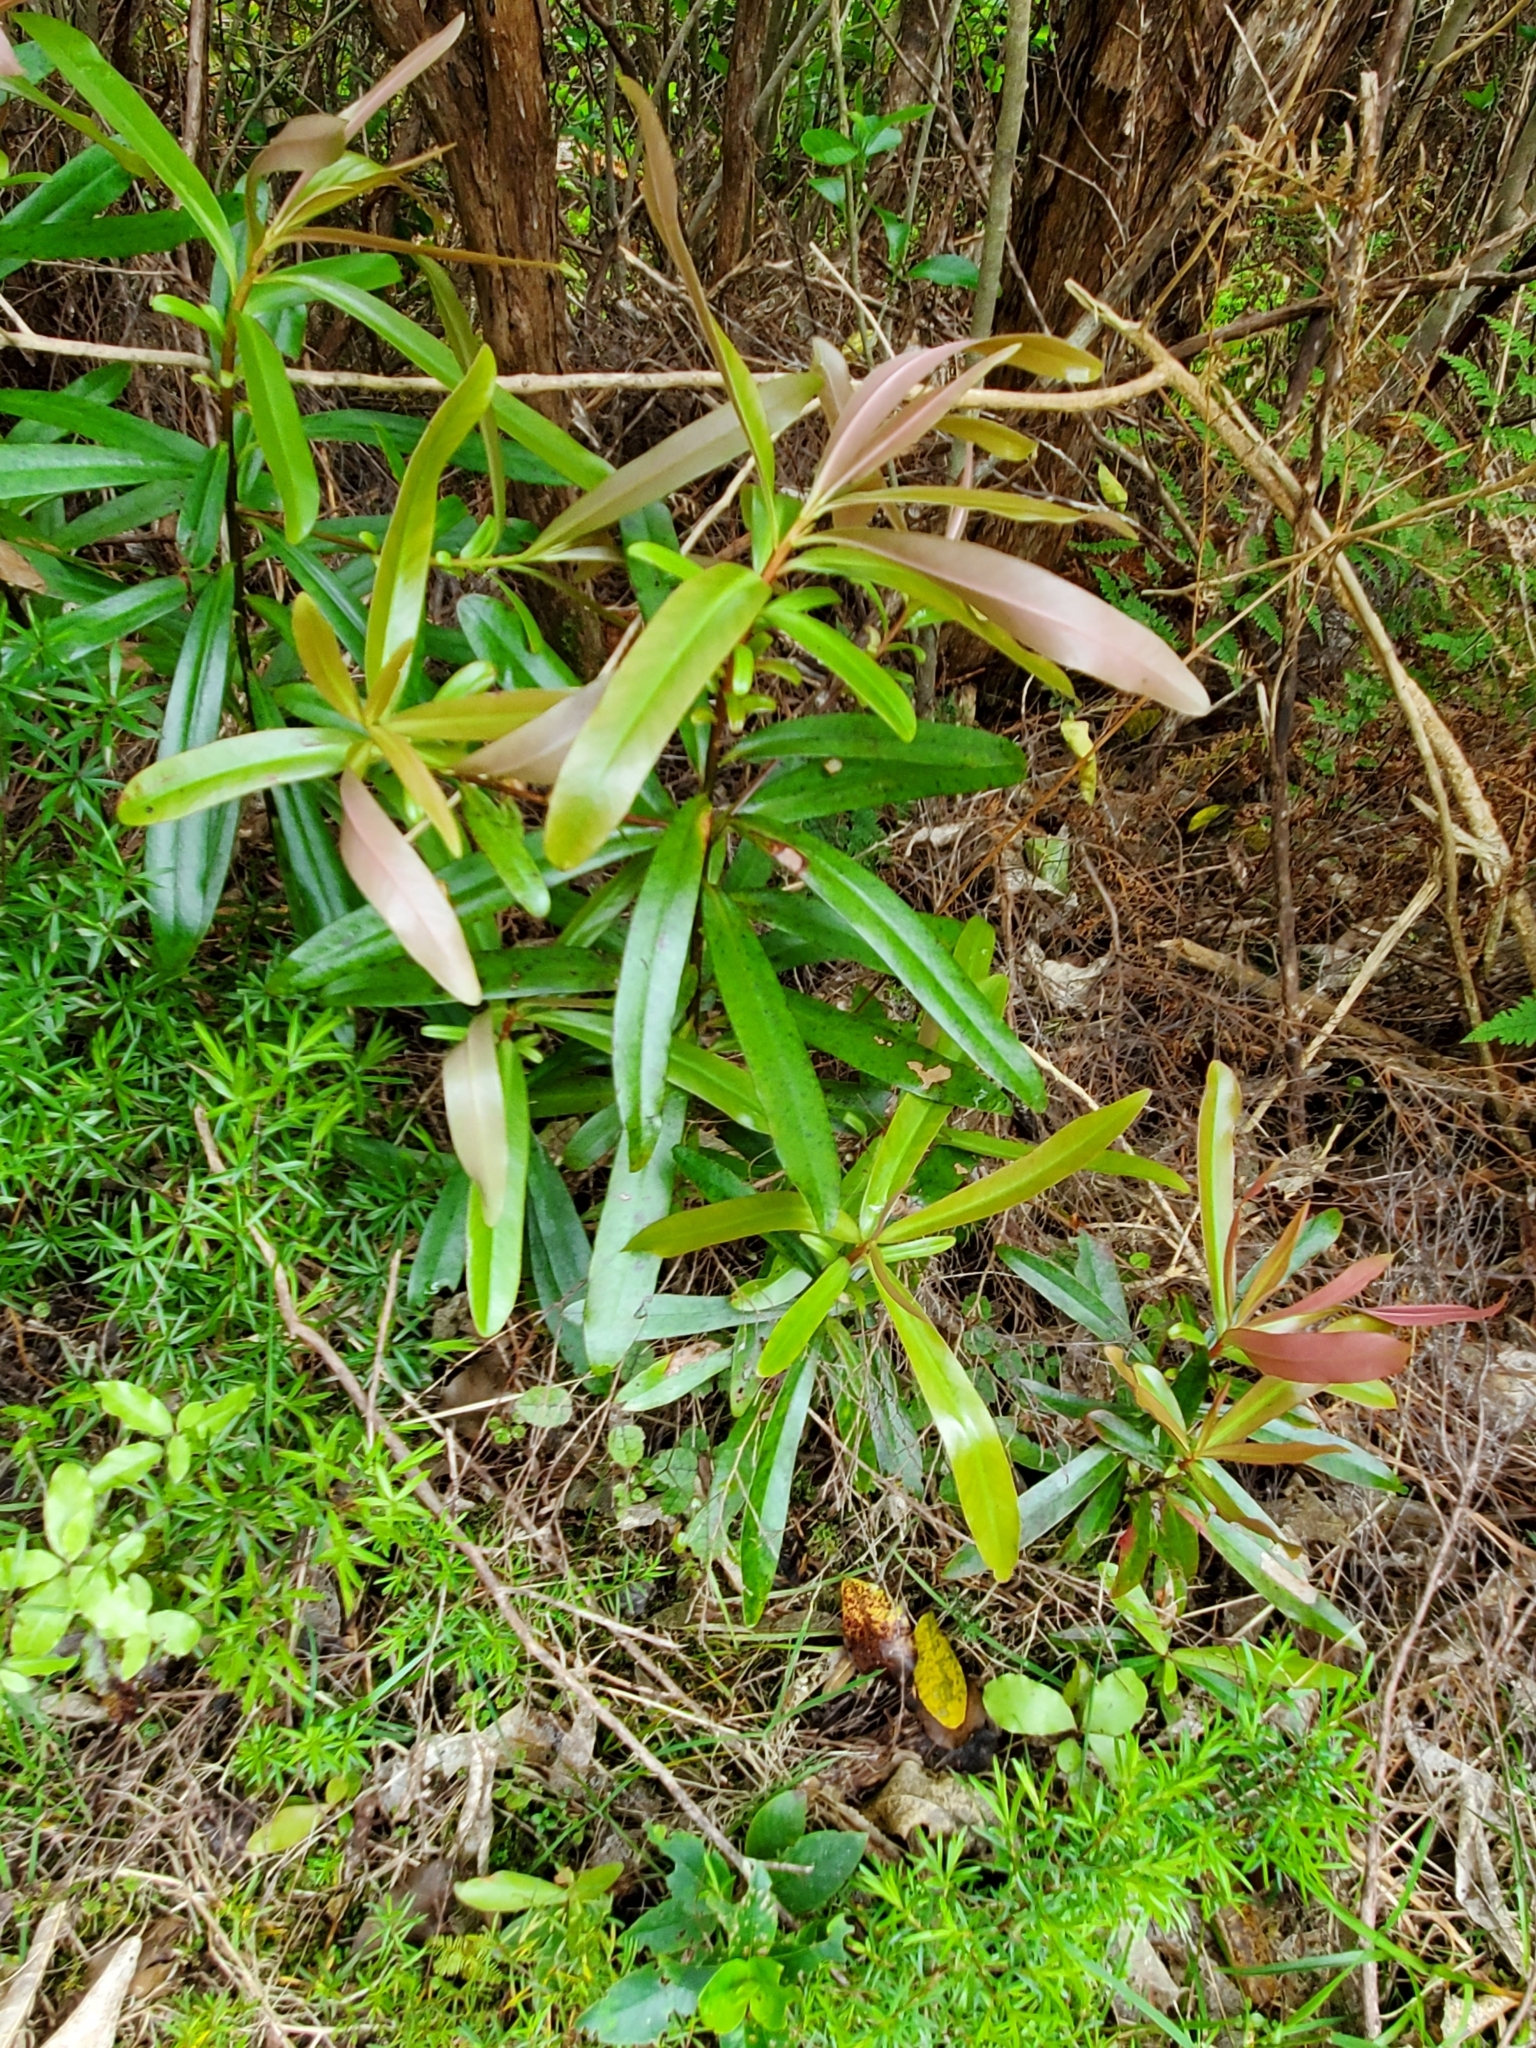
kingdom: Plantae
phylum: Tracheophyta
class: Magnoliopsida
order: Ericales
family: Primulaceae
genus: Myrsine
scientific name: Myrsine salicina
